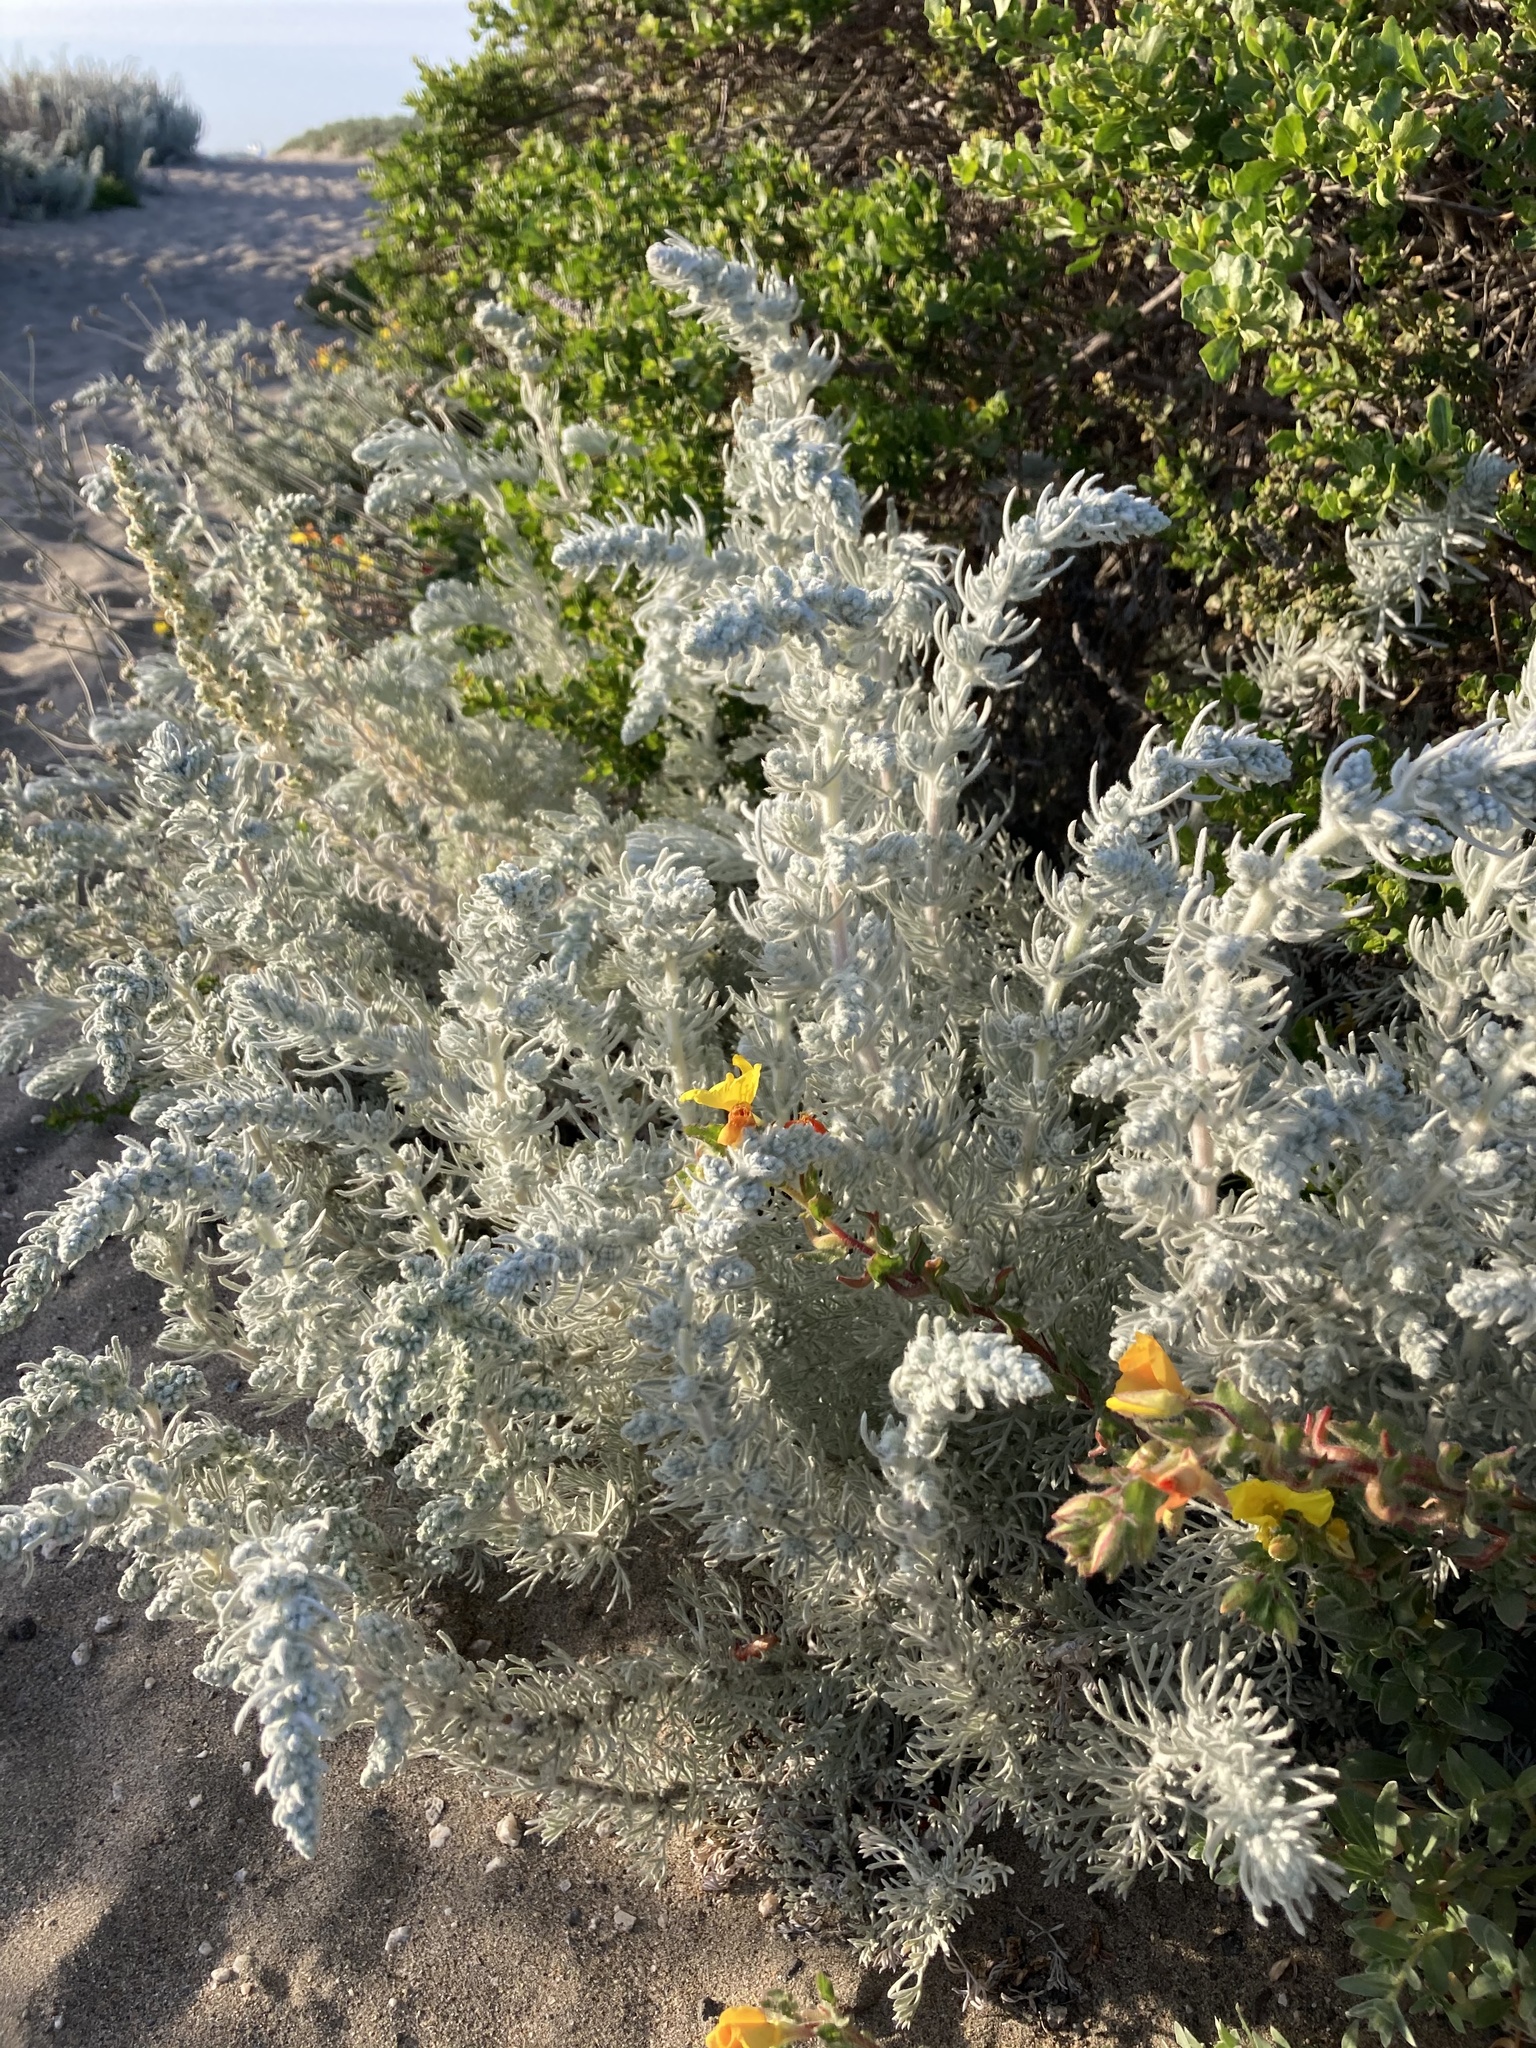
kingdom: Plantae
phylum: Tracheophyta
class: Magnoliopsida
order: Asterales
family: Asteraceae
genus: Artemisia
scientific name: Artemisia pycnocephala
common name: Coastal sagewort
